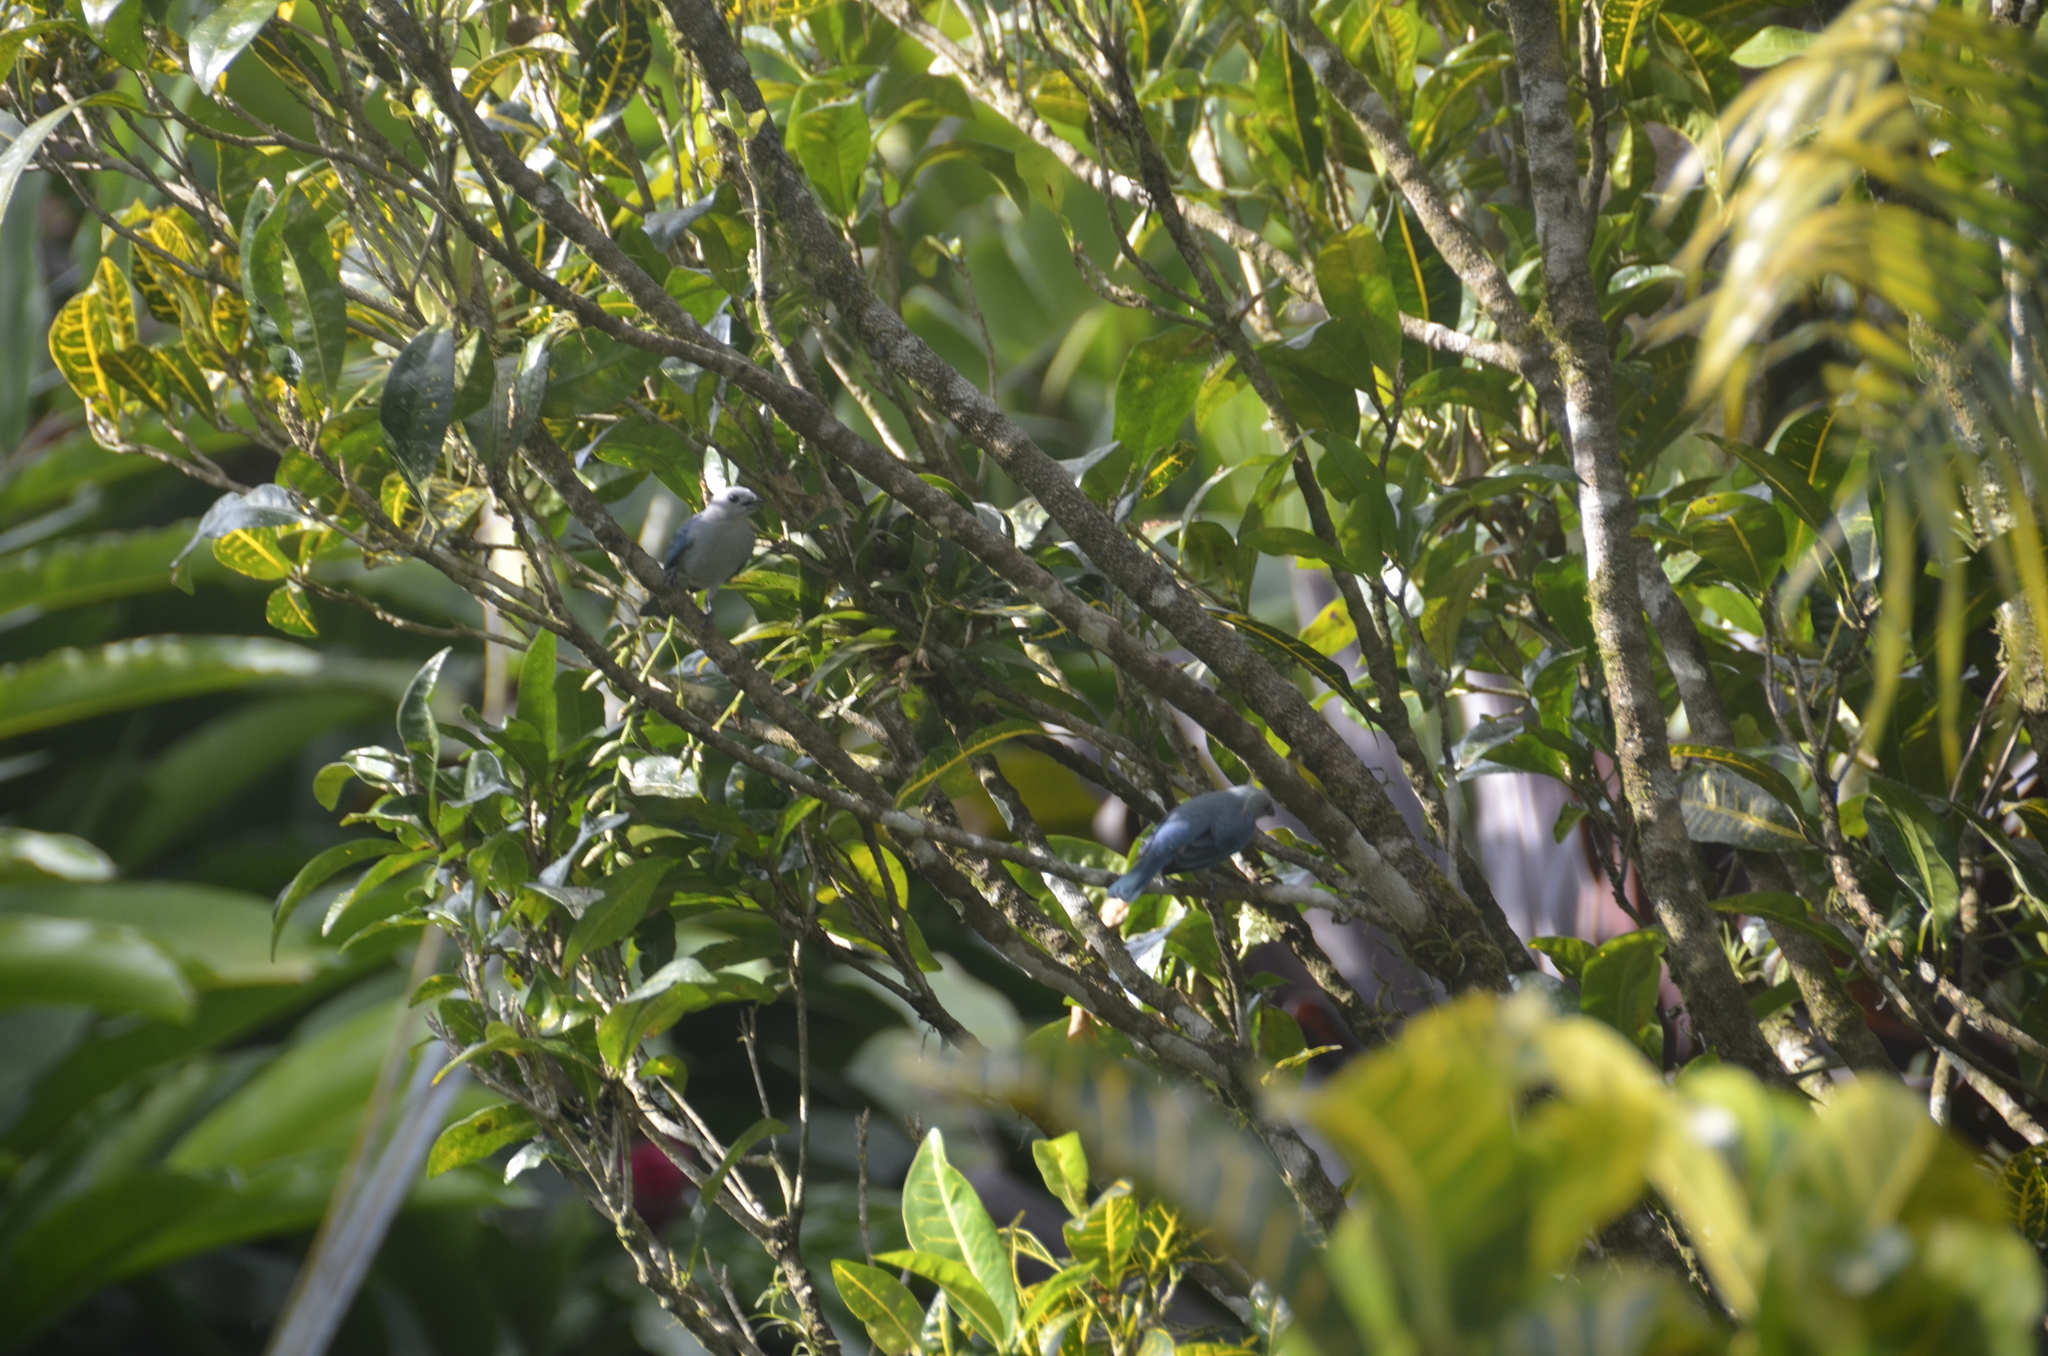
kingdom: Animalia
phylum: Chordata
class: Aves
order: Passeriformes
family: Thraupidae
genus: Thraupis
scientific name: Thraupis episcopus
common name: Blue-grey tanager
